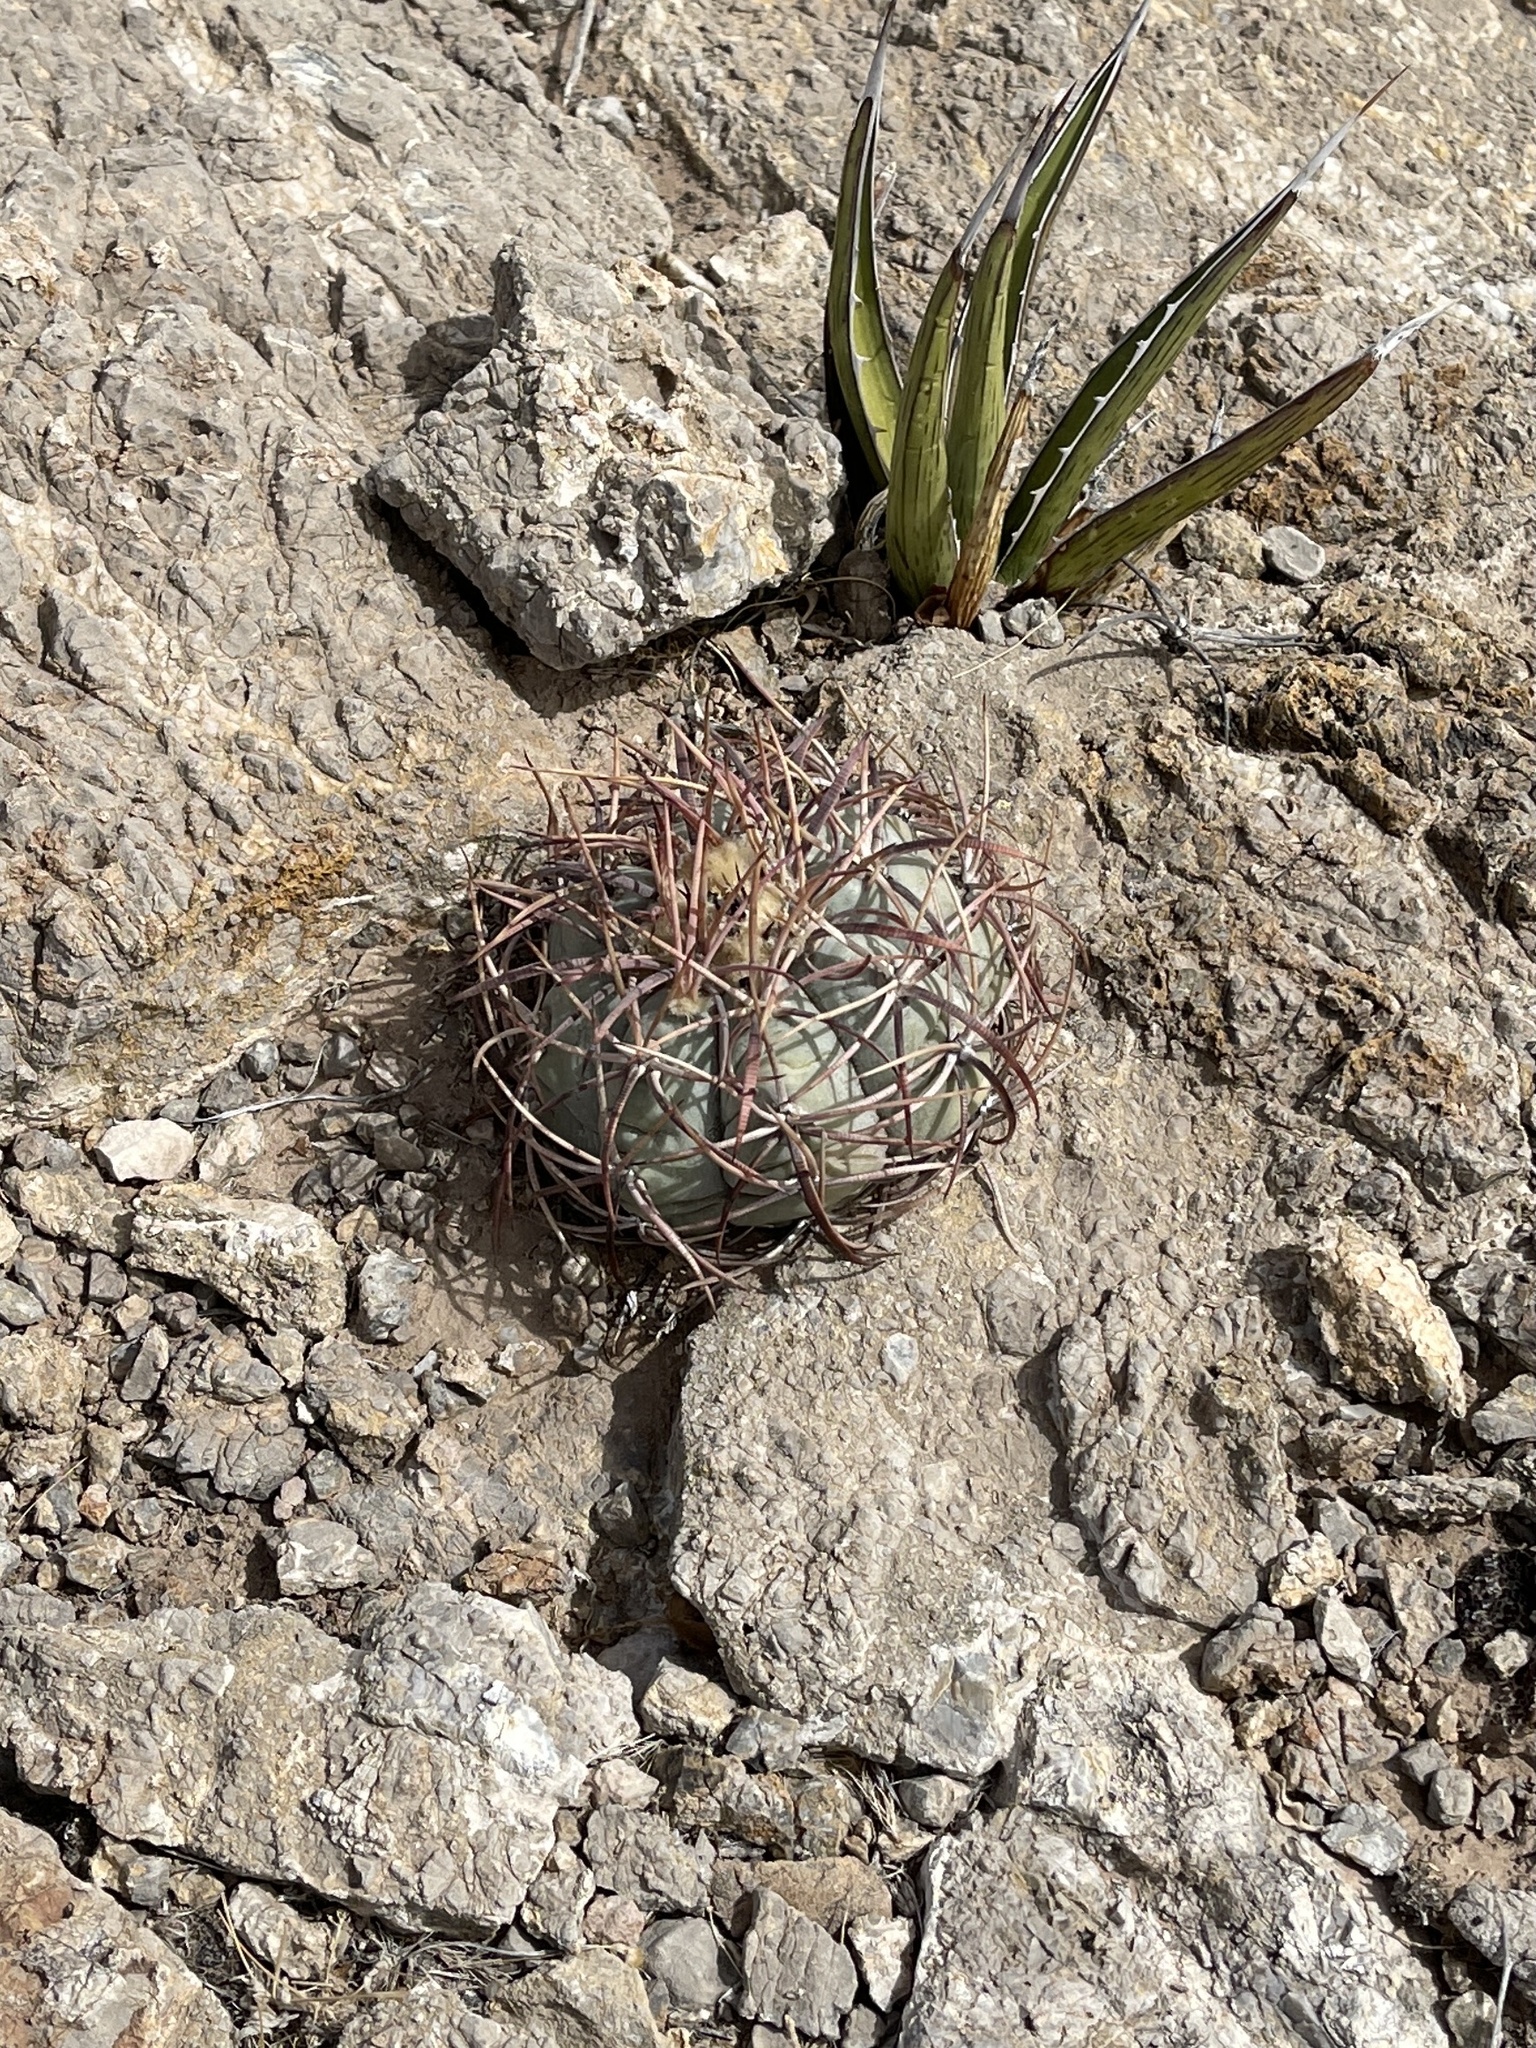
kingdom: Plantae
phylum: Tracheophyta
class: Magnoliopsida
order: Caryophyllales
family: Cactaceae
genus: Echinocactus
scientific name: Echinocactus horizonthalonius
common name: Devilshead
